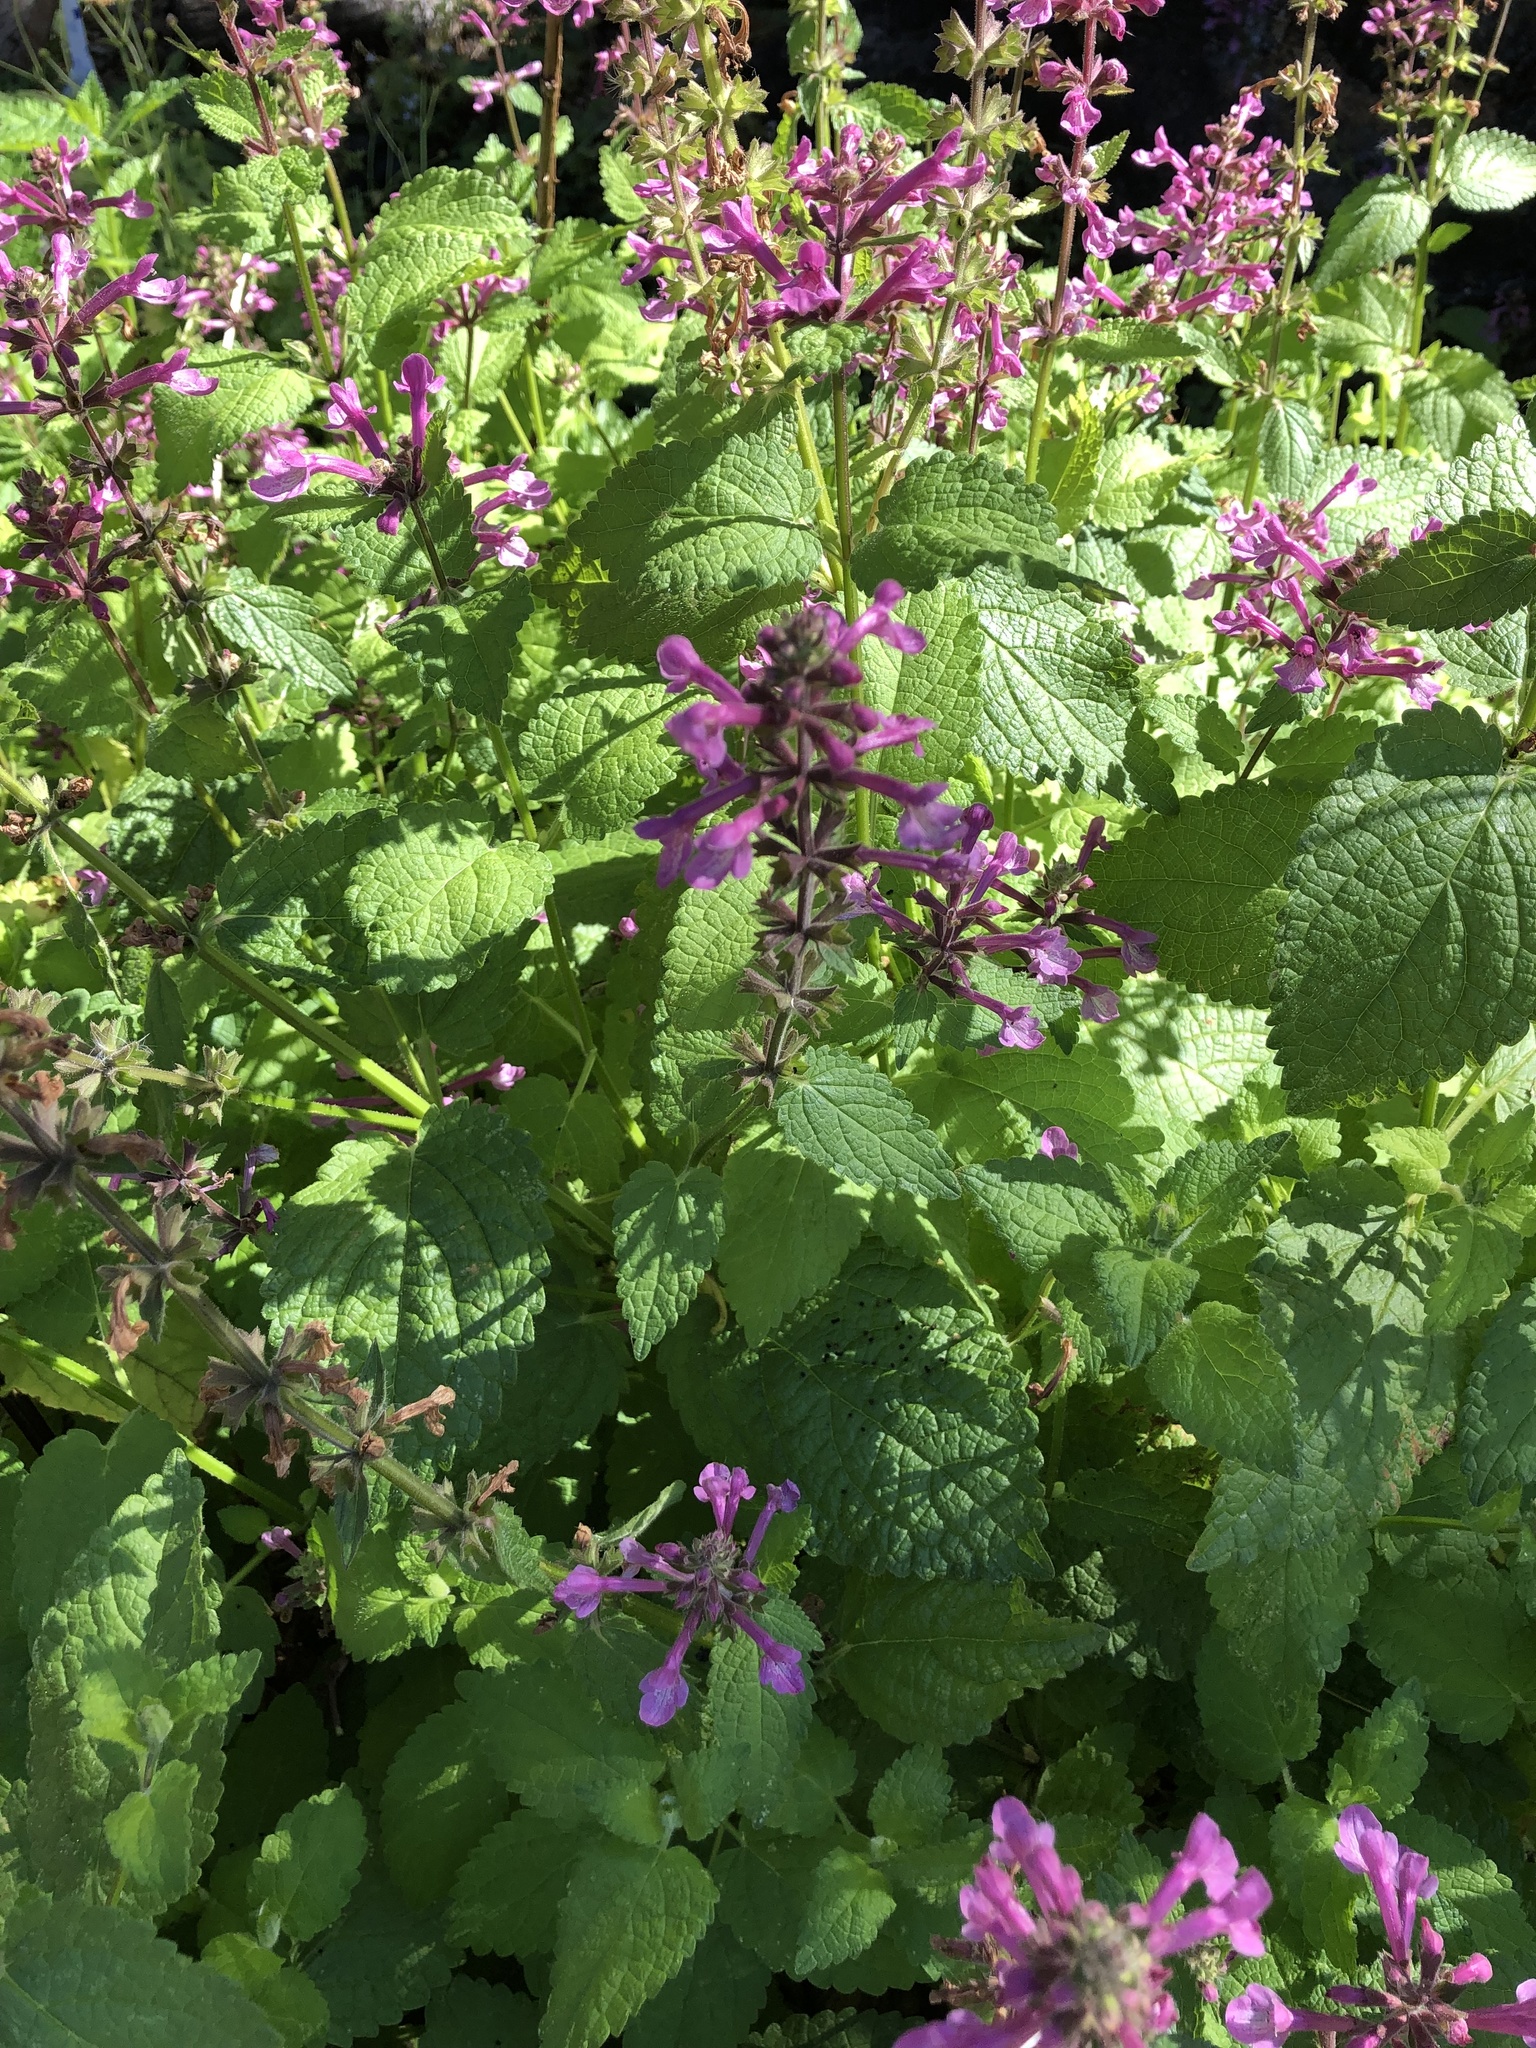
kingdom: Plantae
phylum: Tracheophyta
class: Magnoliopsida
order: Lamiales
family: Lamiaceae
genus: Stachys
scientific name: Stachys chamissonis
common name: Coastal hedge-nettle
